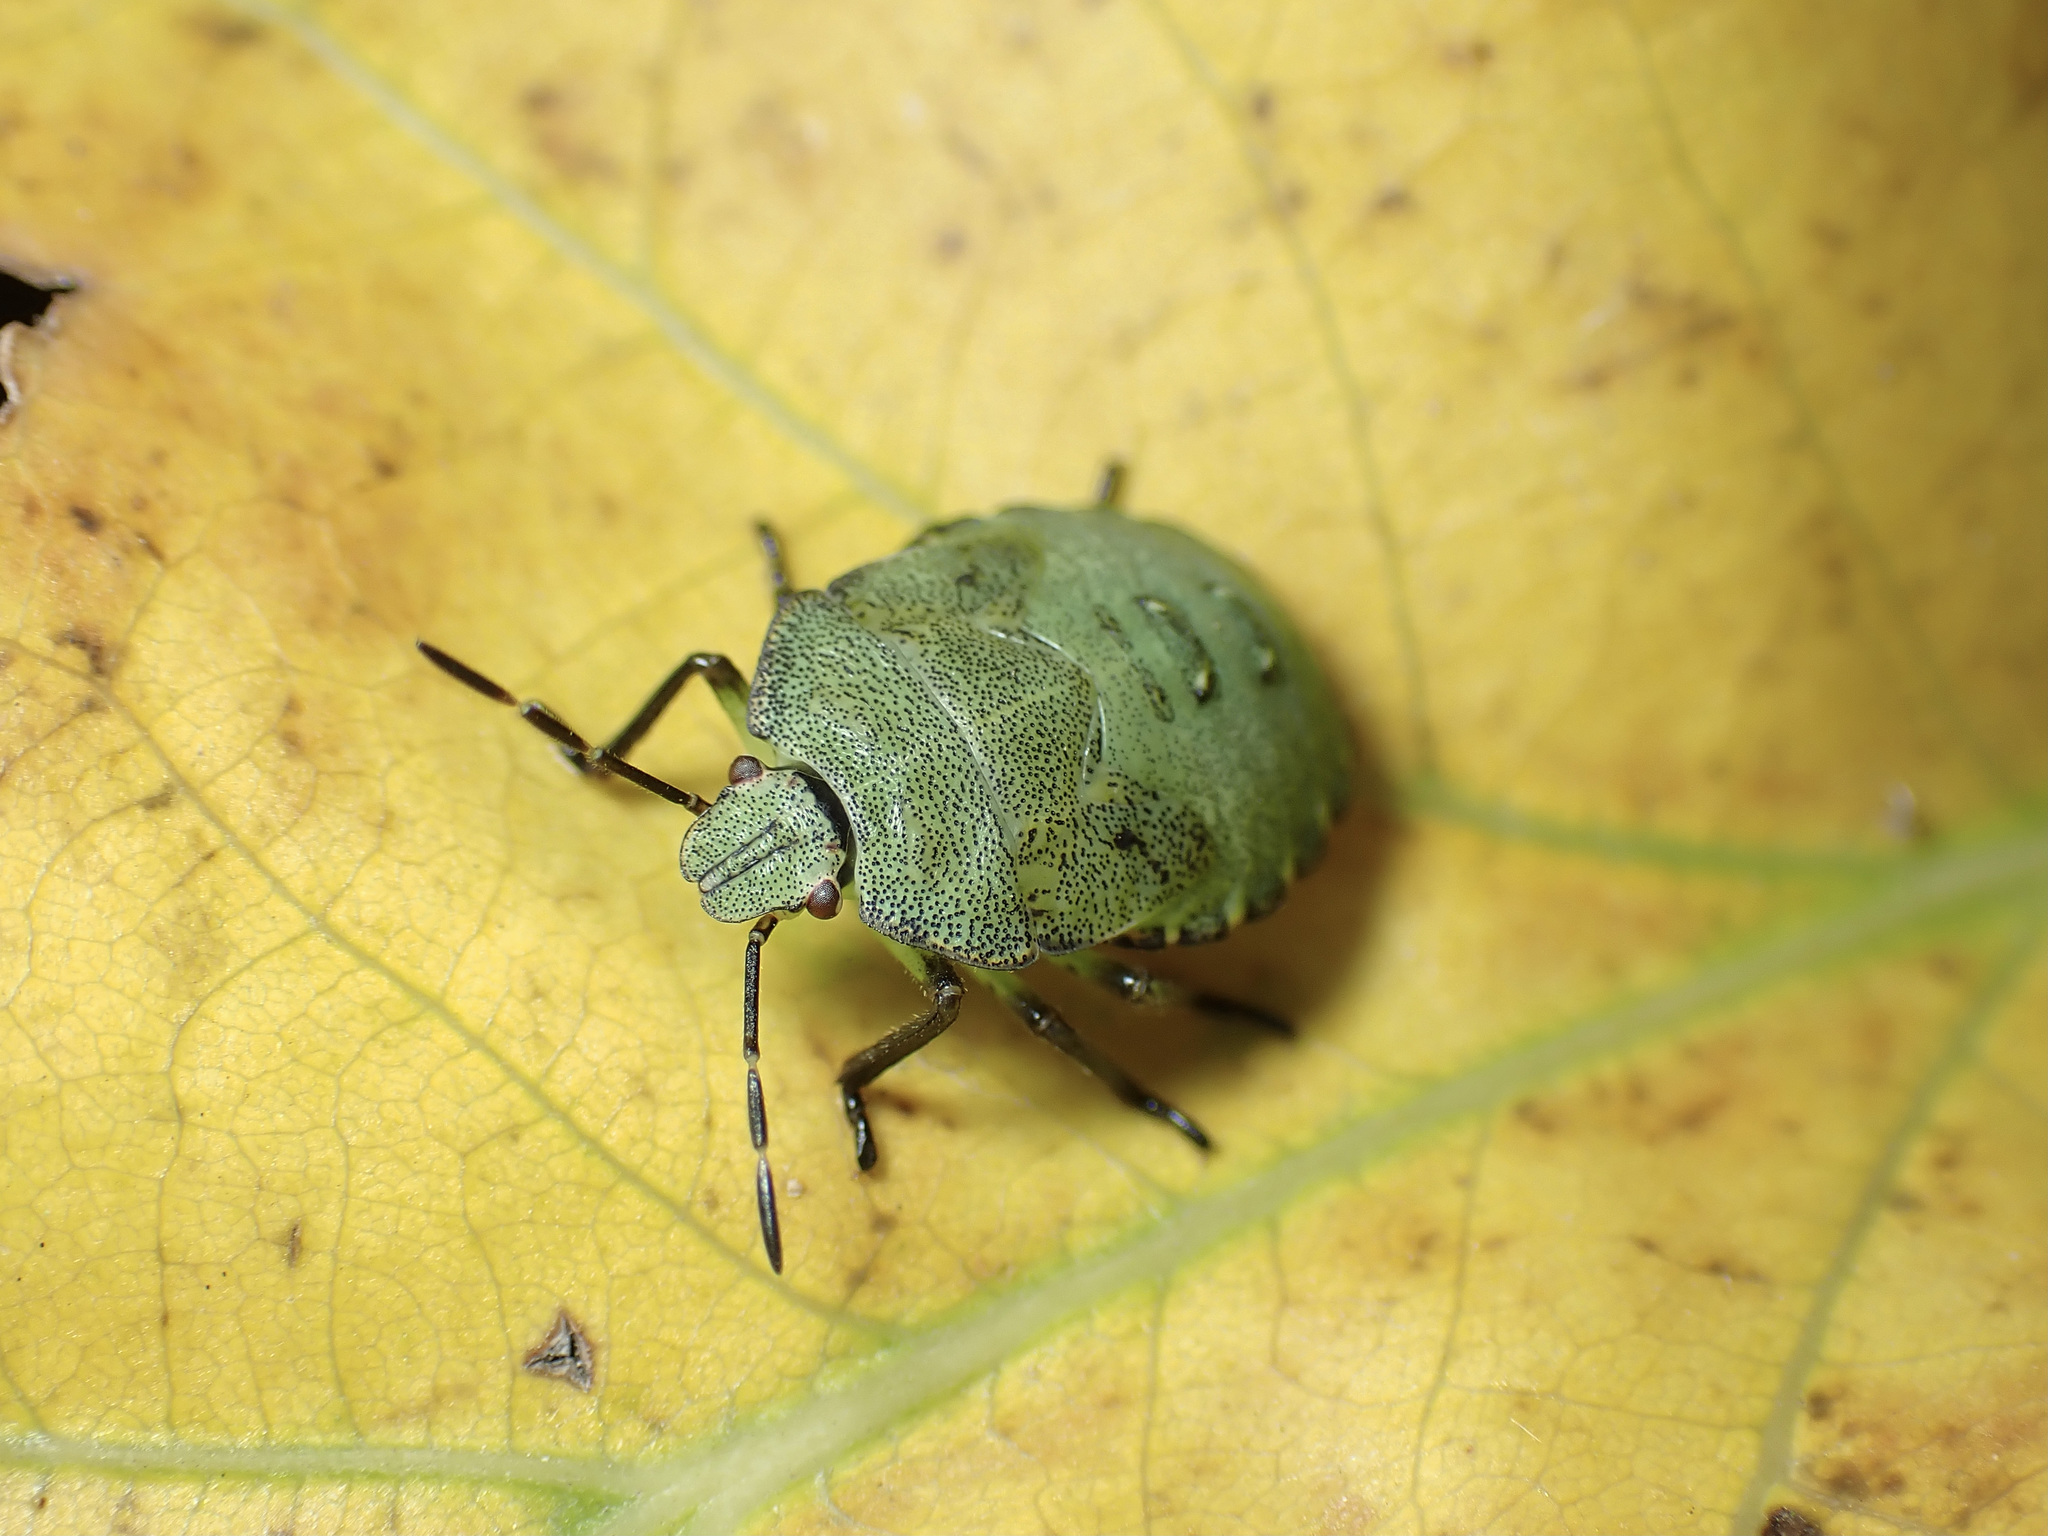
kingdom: Animalia
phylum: Arthropoda
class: Insecta
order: Hemiptera
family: Pentatomidae
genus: Palomena
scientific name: Palomena prasina
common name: Green shieldbug
